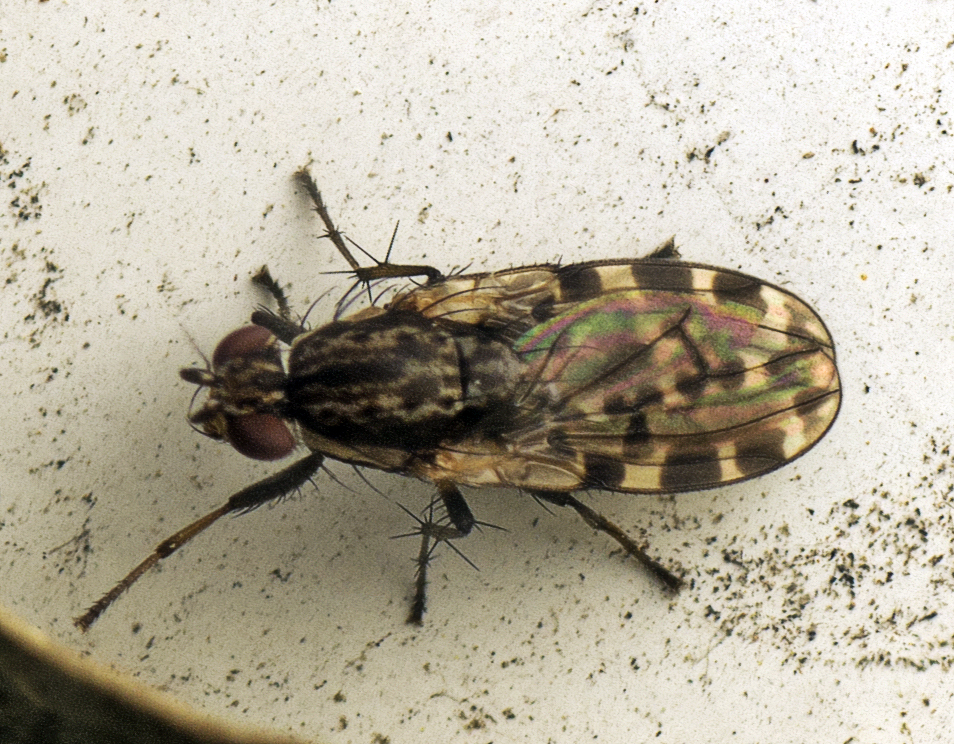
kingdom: Animalia
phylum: Arthropoda
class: Insecta
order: Diptera
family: Heleomyzidae
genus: Diplogeomyza
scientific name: Diplogeomyza maculipennis
